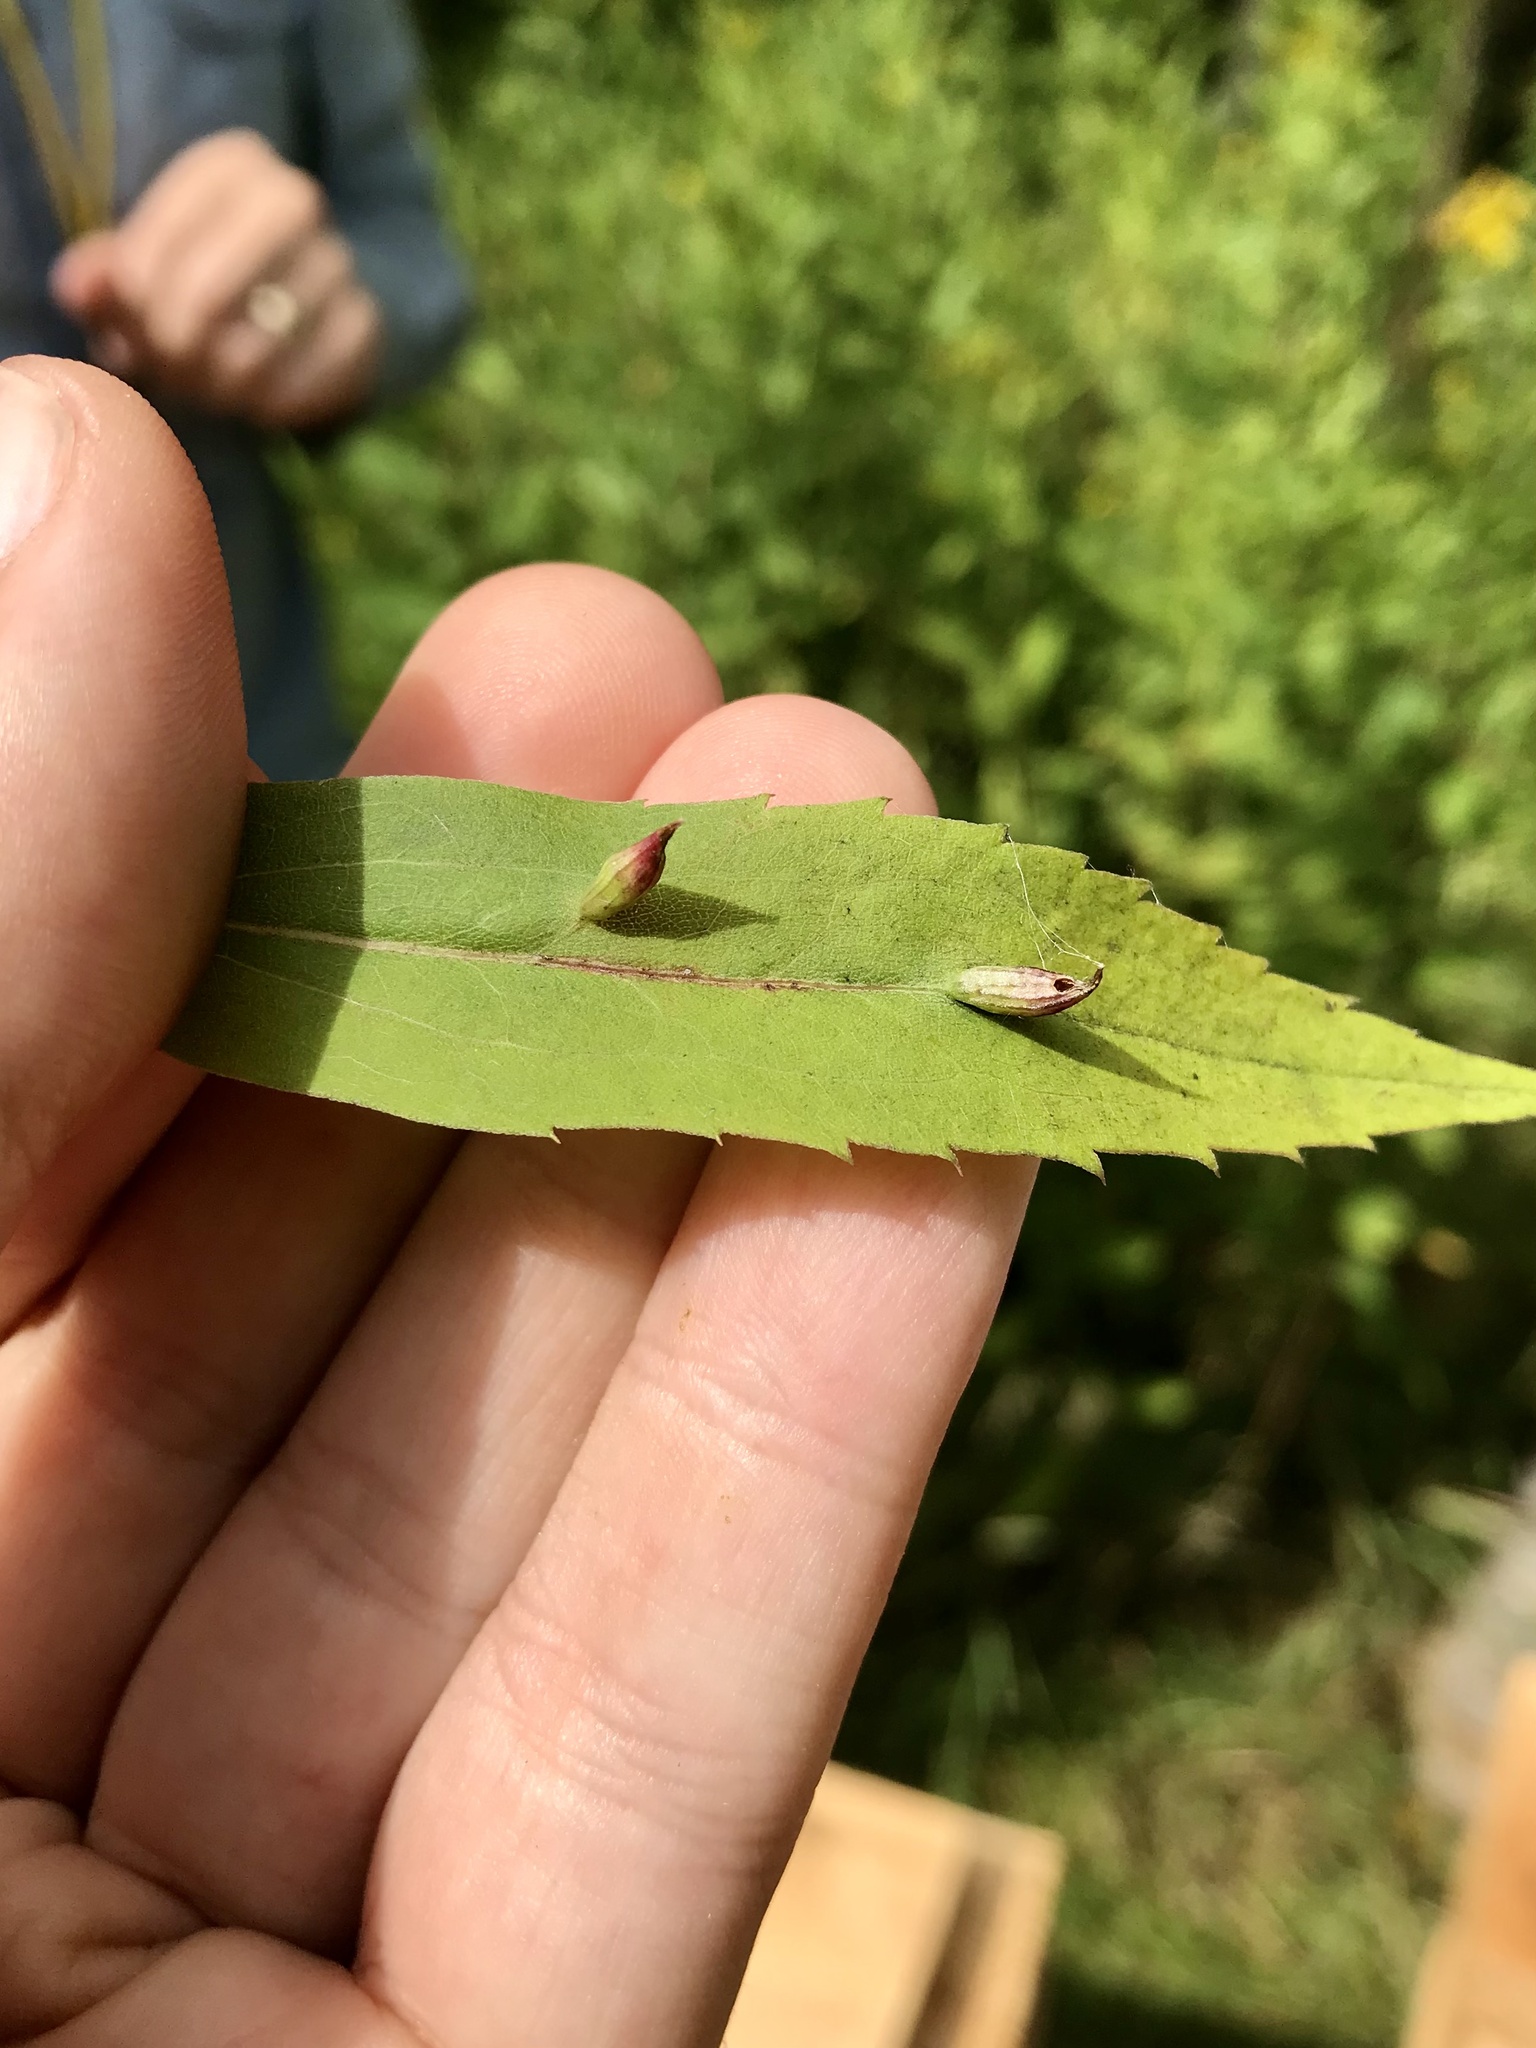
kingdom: Animalia
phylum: Arthropoda
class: Insecta
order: Diptera
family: Cecidomyiidae
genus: Rhopalomyia
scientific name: Rhopalomyia inquisitor
